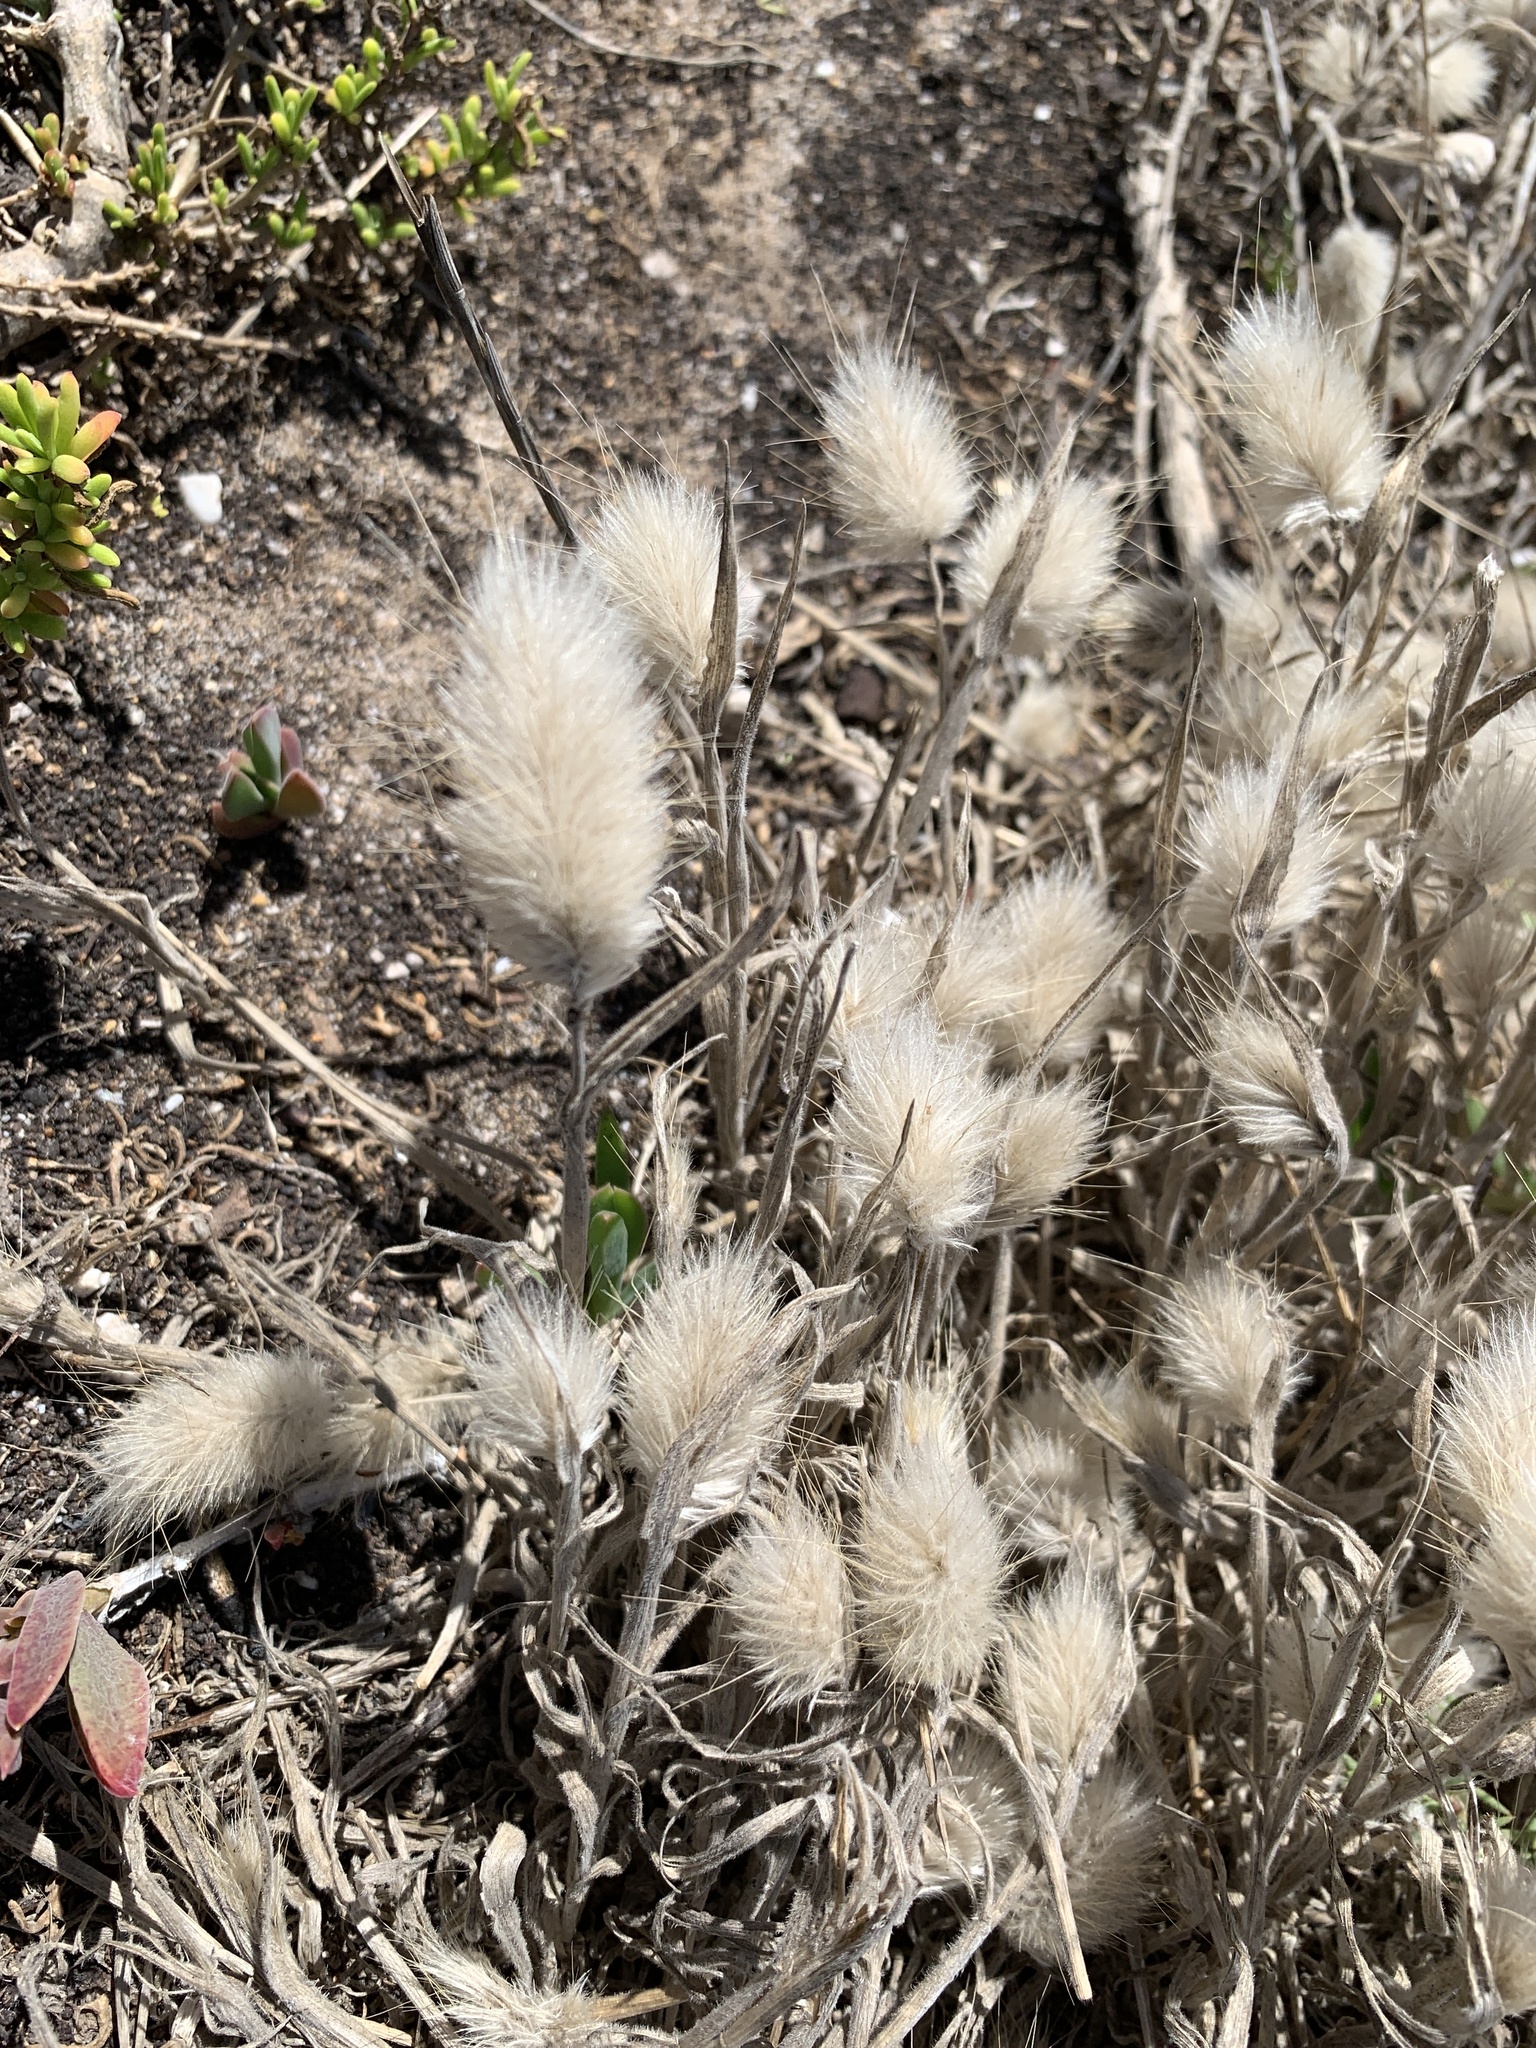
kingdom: Plantae
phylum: Tracheophyta
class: Liliopsida
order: Poales
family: Poaceae
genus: Lagurus
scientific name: Lagurus ovatus
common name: Hare's-tail
